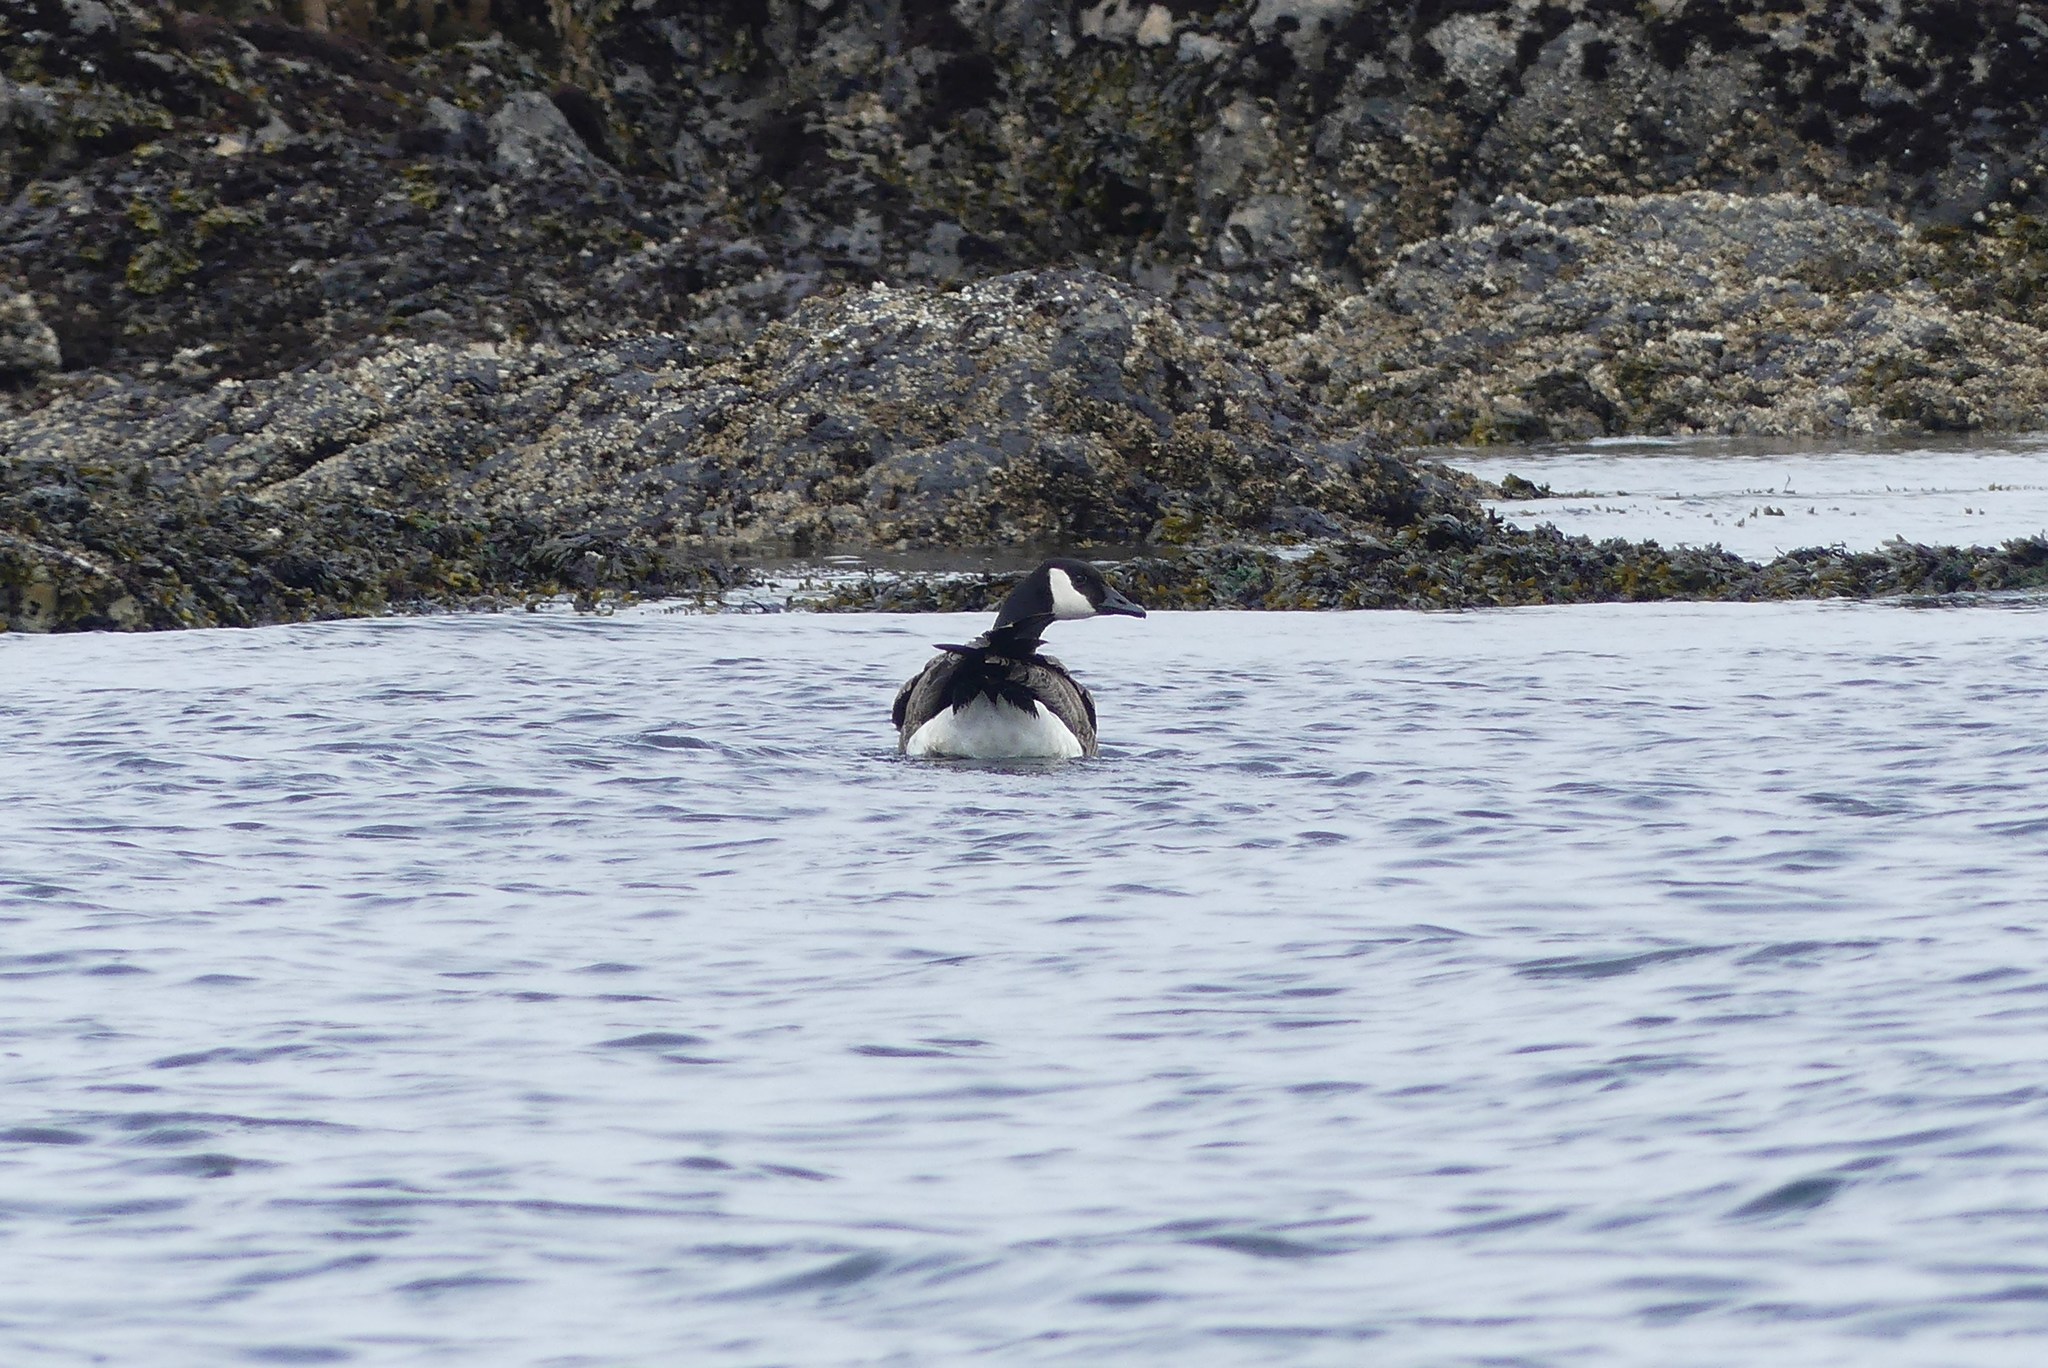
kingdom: Animalia
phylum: Chordata
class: Aves
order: Anseriformes
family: Anatidae
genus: Branta
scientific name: Branta canadensis
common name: Canada goose
